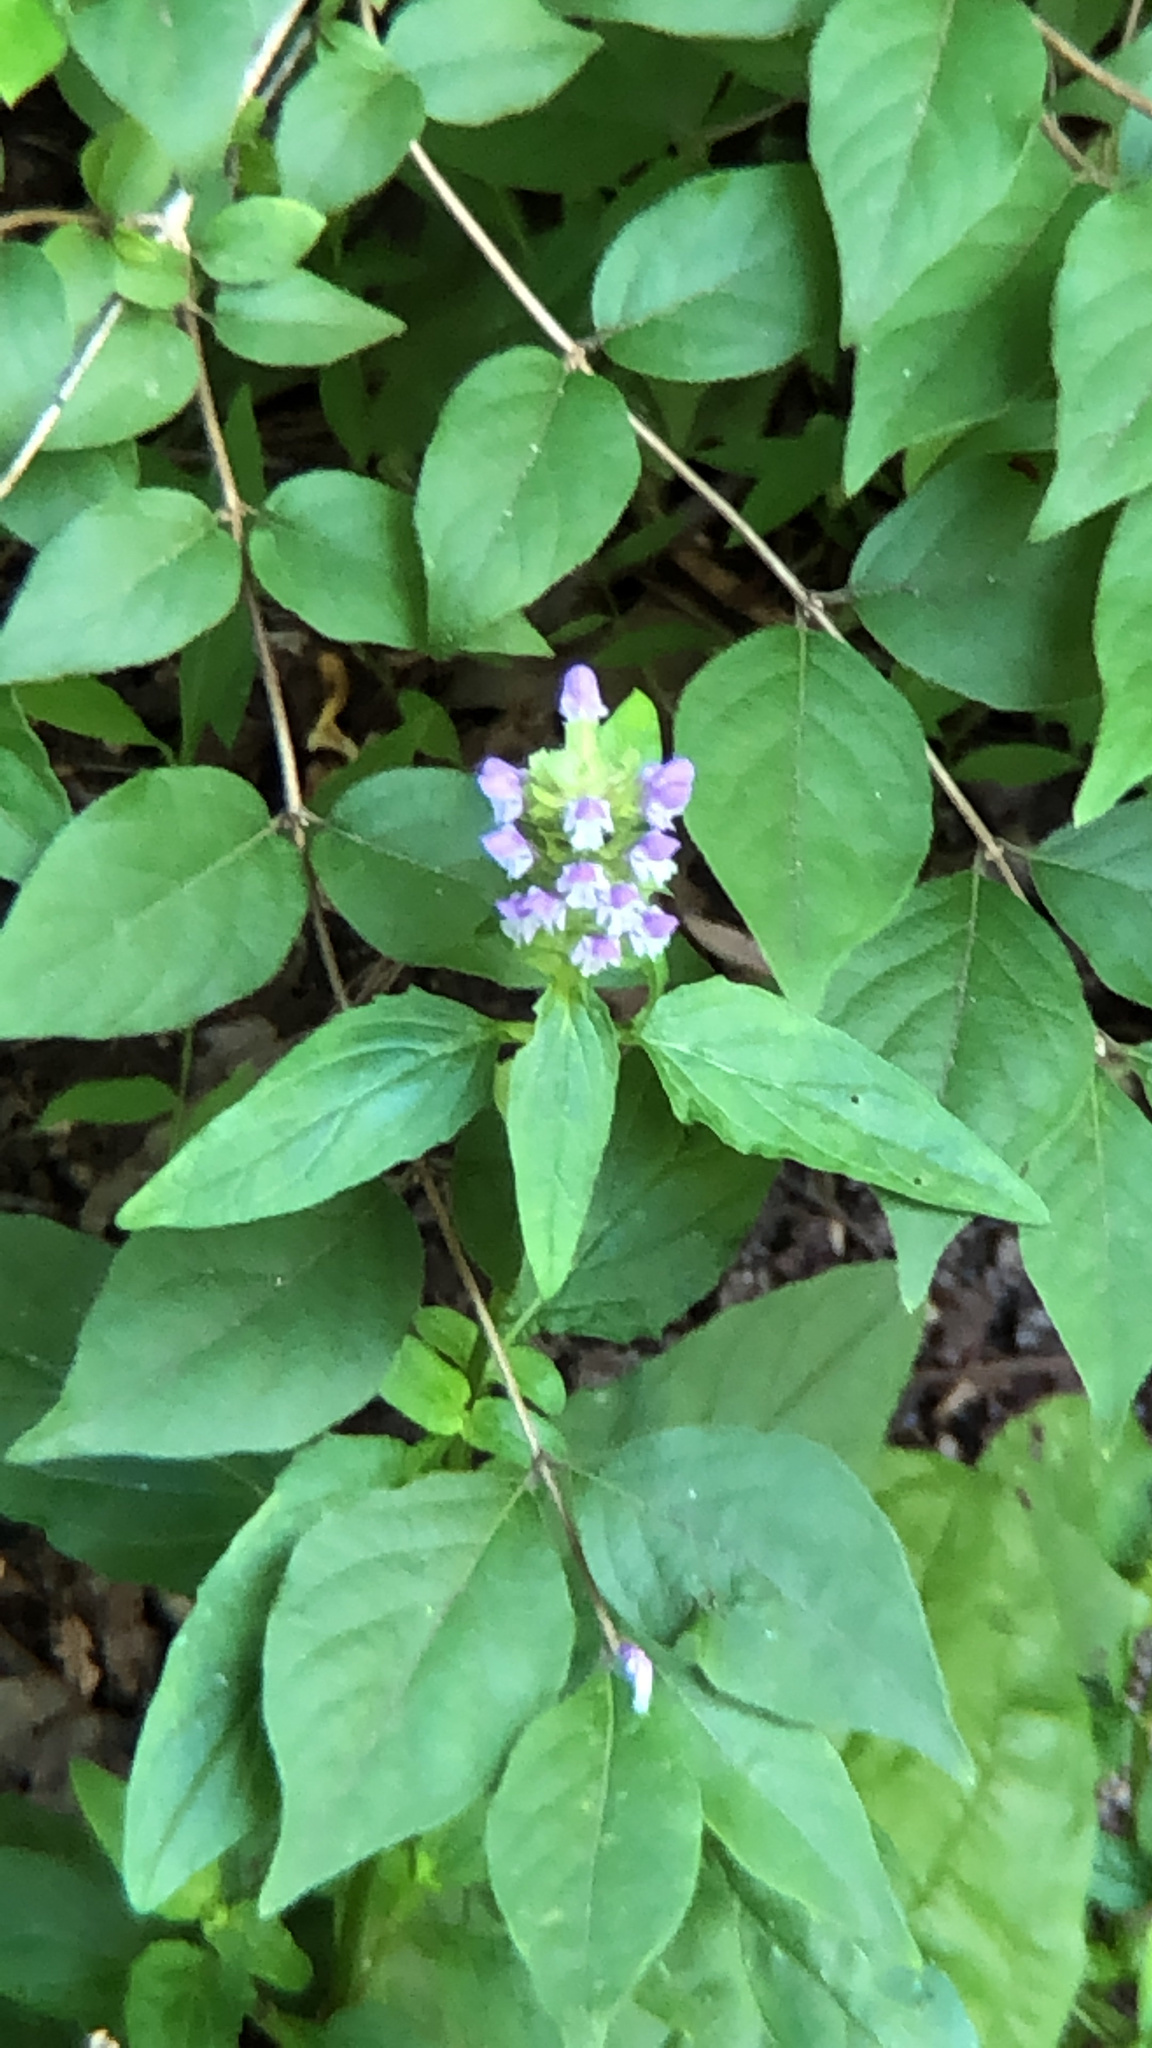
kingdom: Plantae
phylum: Tracheophyta
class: Magnoliopsida
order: Lamiales
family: Lamiaceae
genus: Prunella
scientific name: Prunella vulgaris
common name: Heal-all
